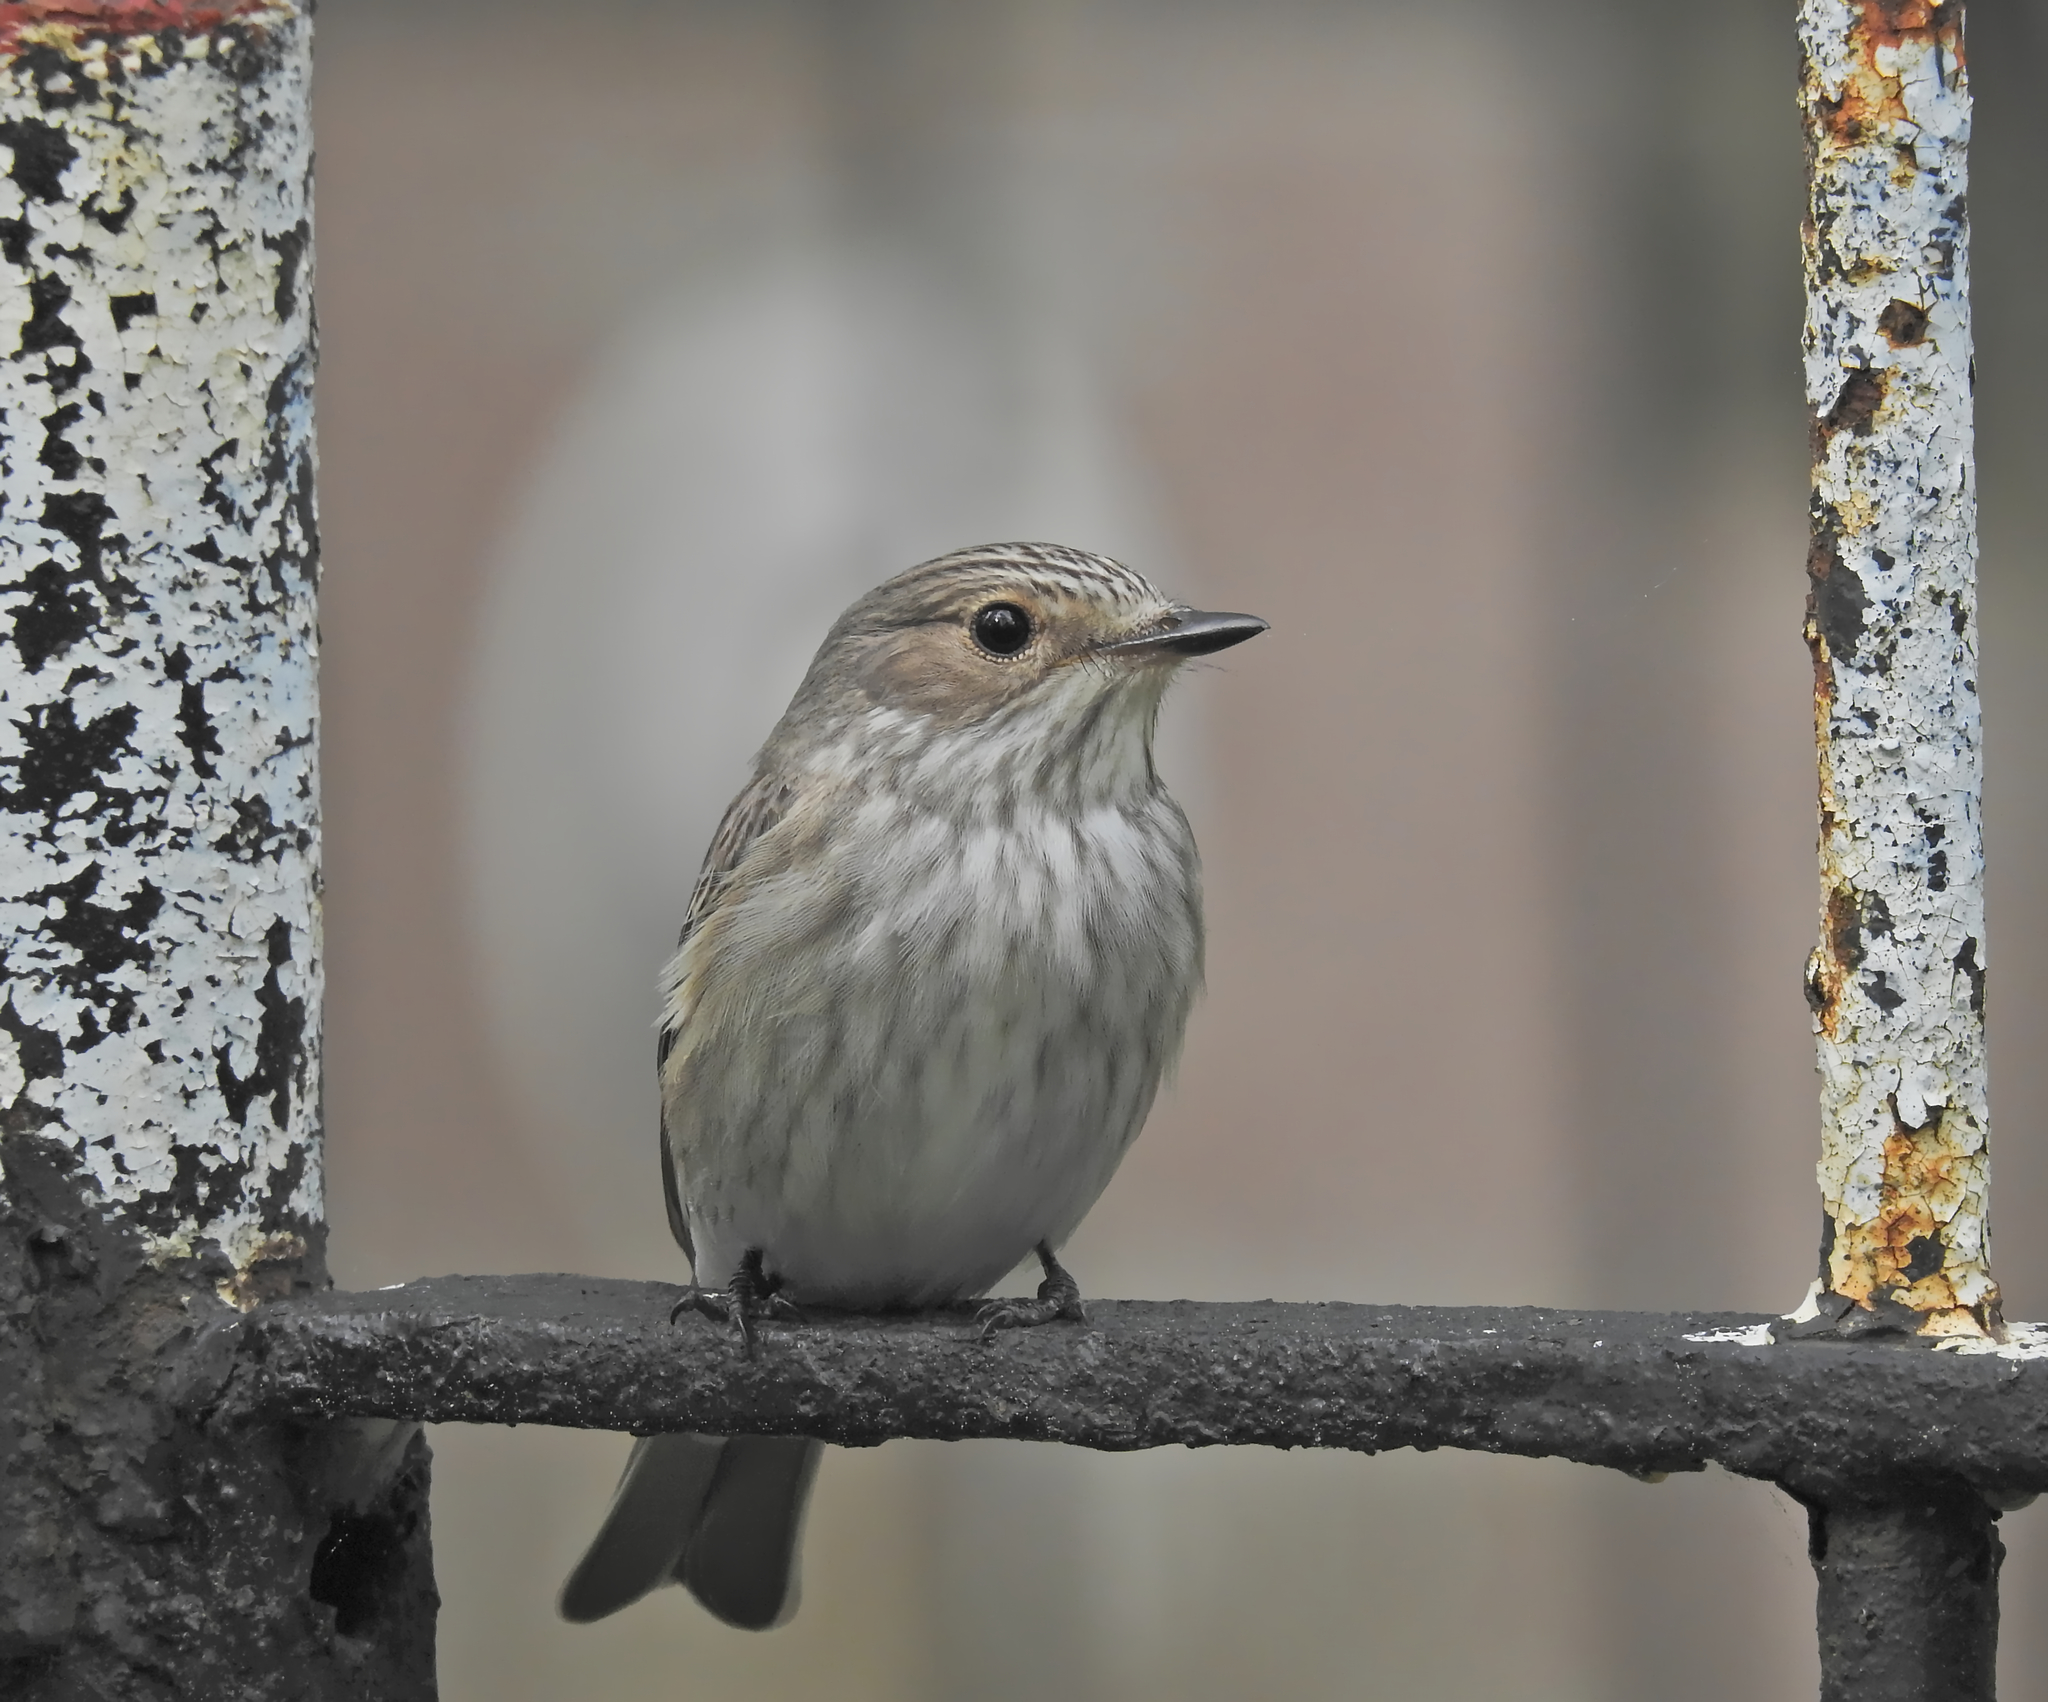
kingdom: Animalia
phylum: Chordata
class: Aves
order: Passeriformes
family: Muscicapidae
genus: Muscicapa
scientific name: Muscicapa striata
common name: Spotted flycatcher
